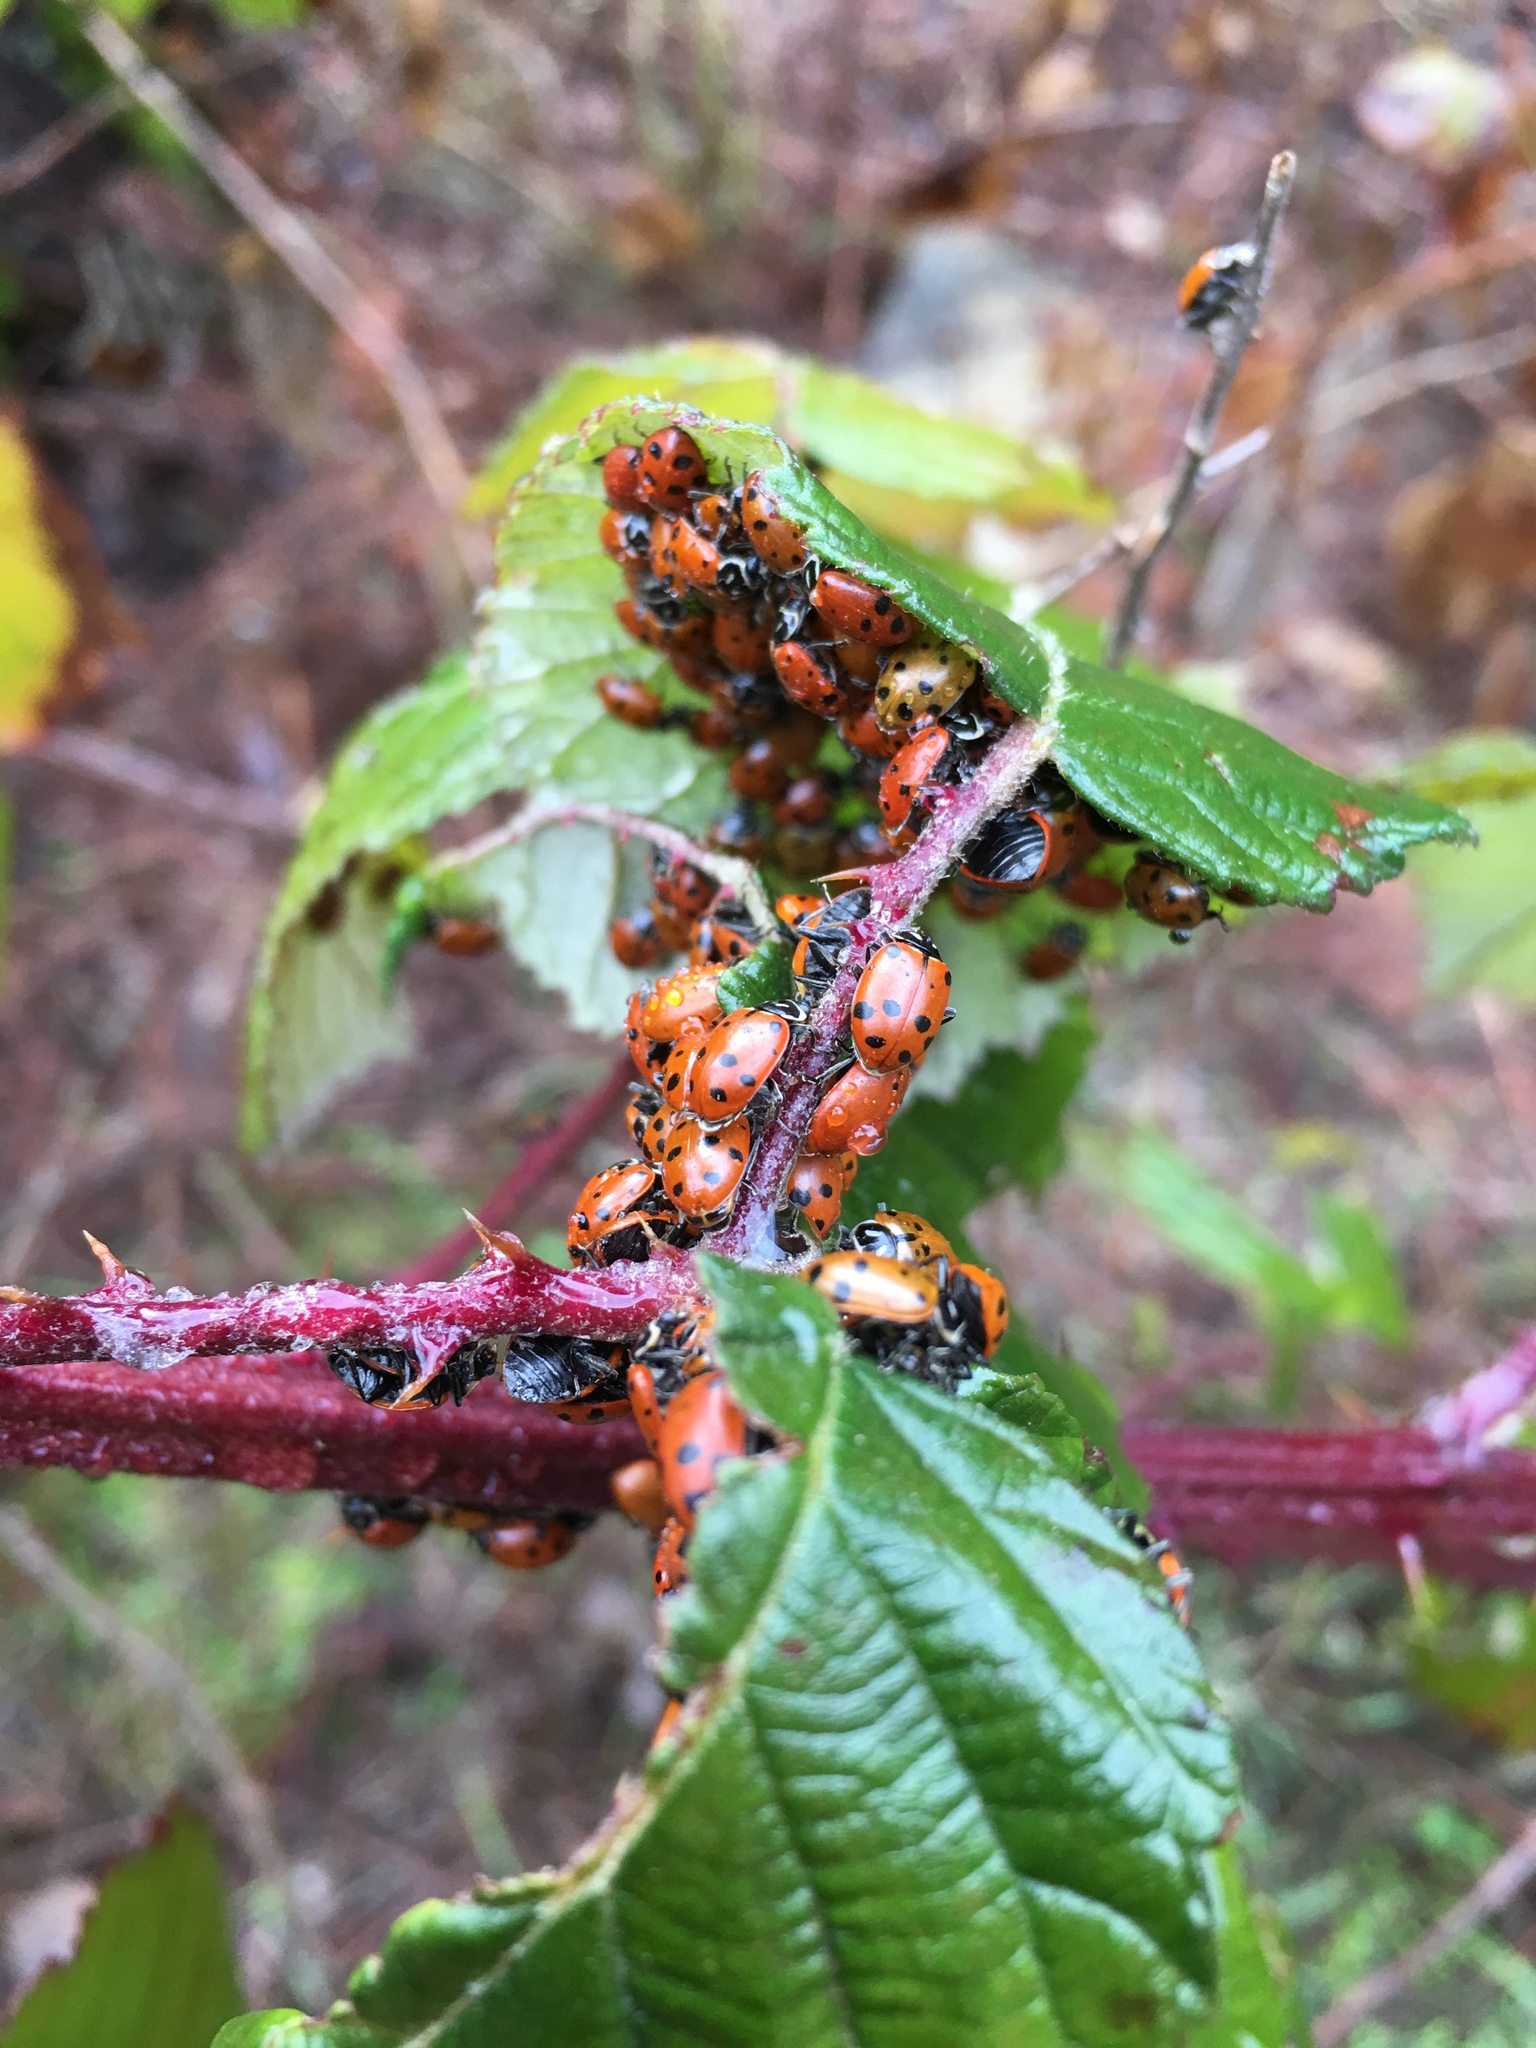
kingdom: Animalia
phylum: Arthropoda
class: Insecta
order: Coleoptera
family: Coccinellidae
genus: Hippodamia
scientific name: Hippodamia convergens
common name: Convergent lady beetle
